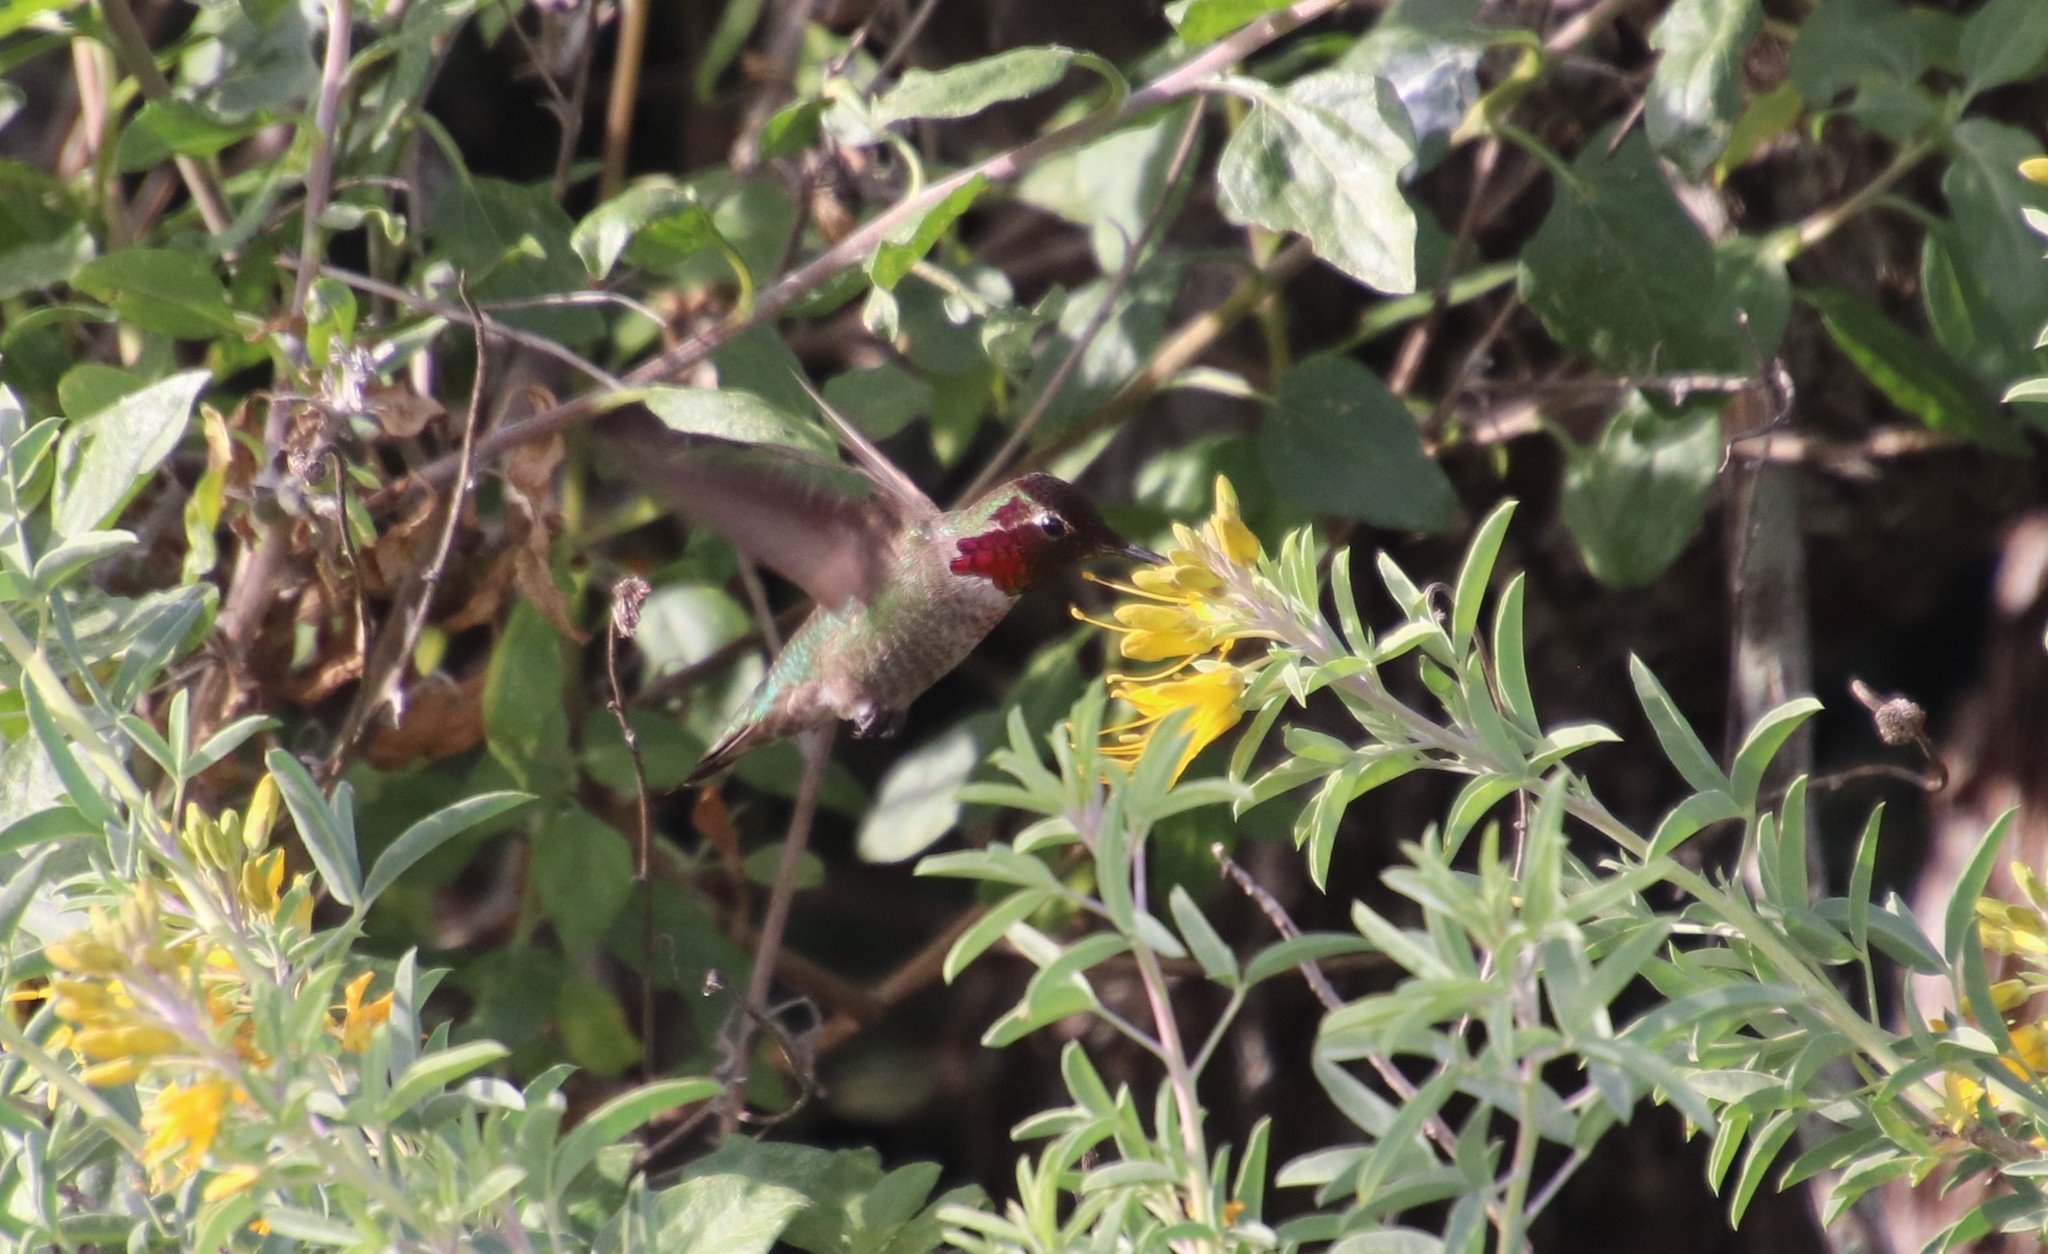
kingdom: Animalia
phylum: Chordata
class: Aves
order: Apodiformes
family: Trochilidae
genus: Calypte
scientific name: Calypte anna
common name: Anna's hummingbird
